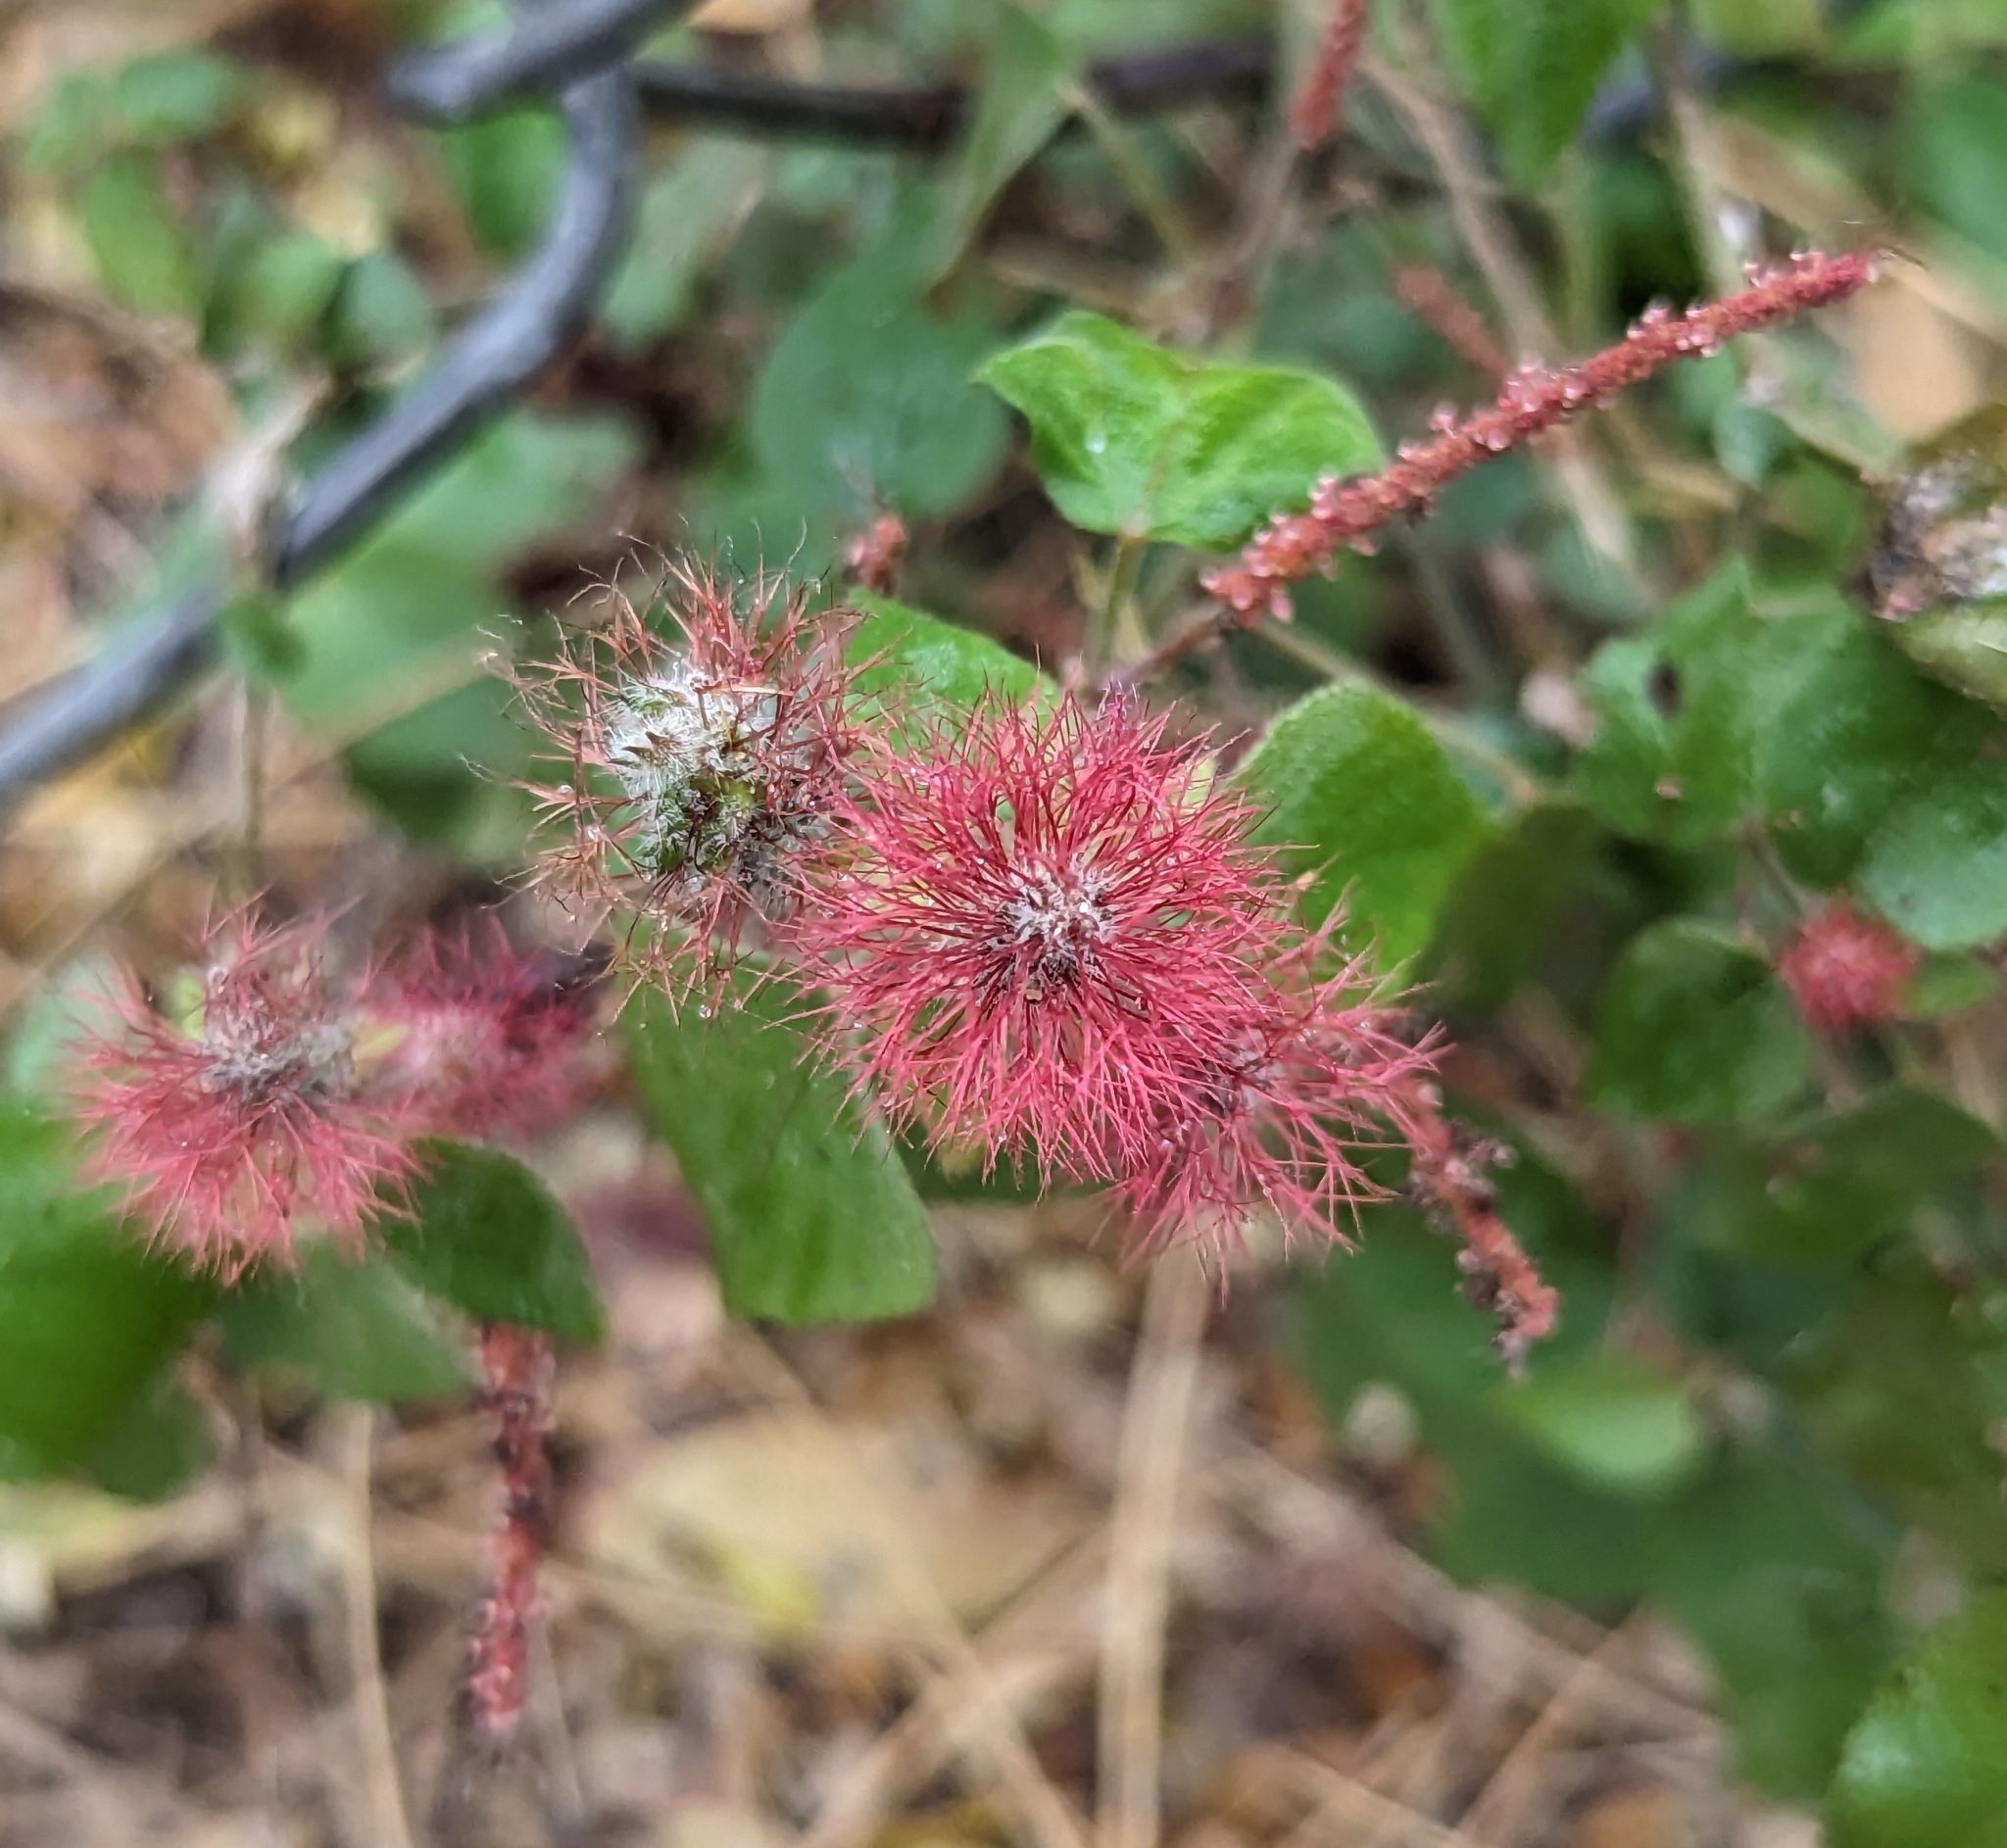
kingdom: Plantae
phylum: Tracheophyta
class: Magnoliopsida
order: Malpighiales
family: Euphorbiaceae
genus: Acalypha
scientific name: Acalypha phleoides
